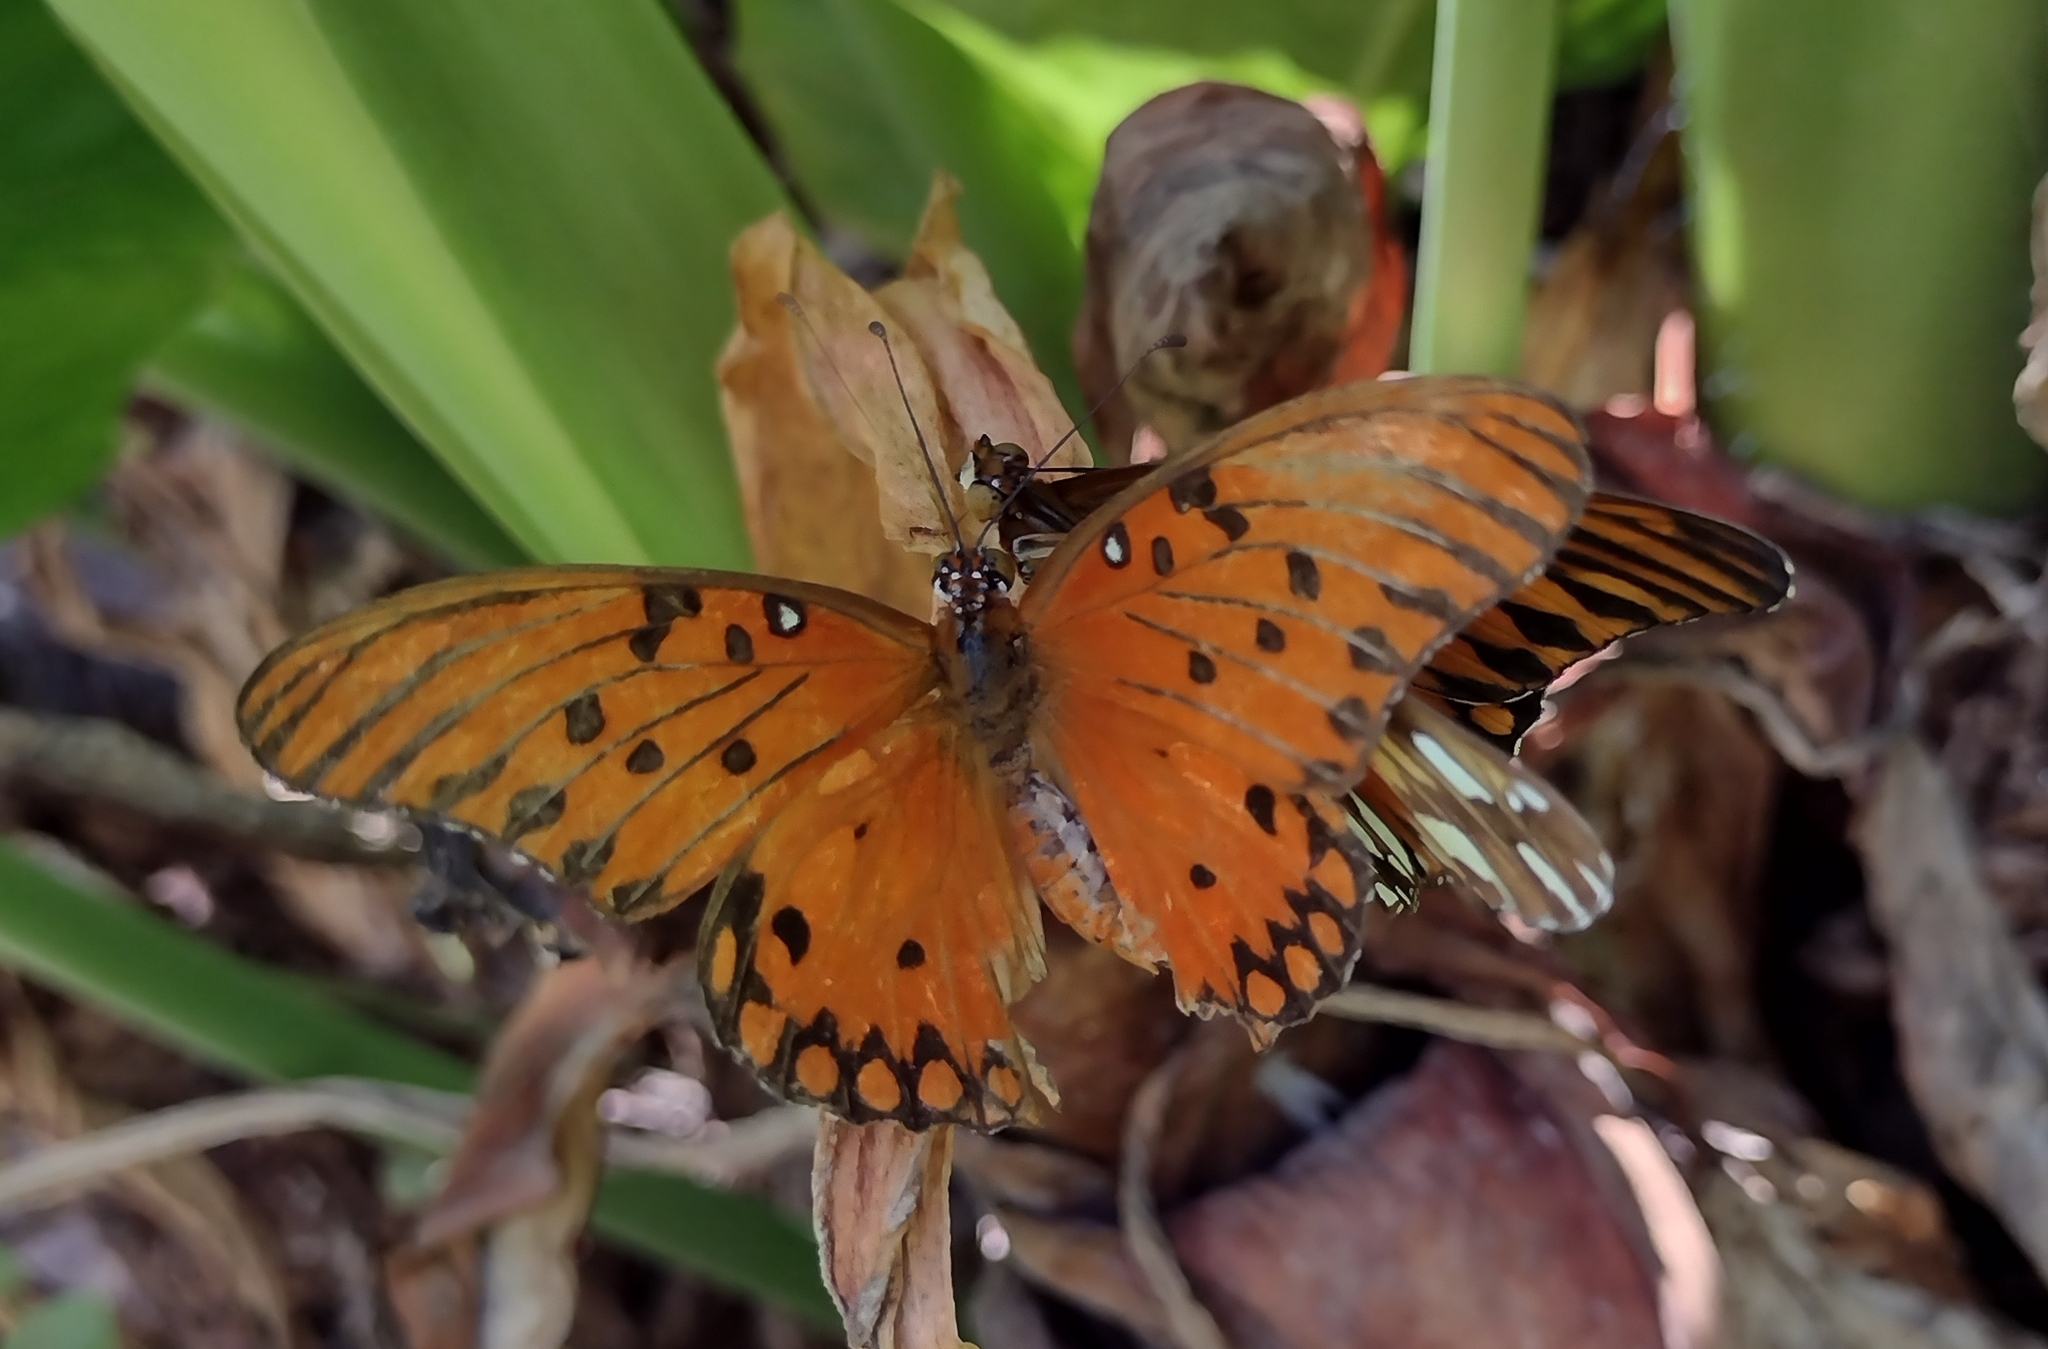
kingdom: Animalia
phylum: Arthropoda
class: Insecta
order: Lepidoptera
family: Nymphalidae
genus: Dione
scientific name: Dione vanillae
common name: Gulf fritillary
